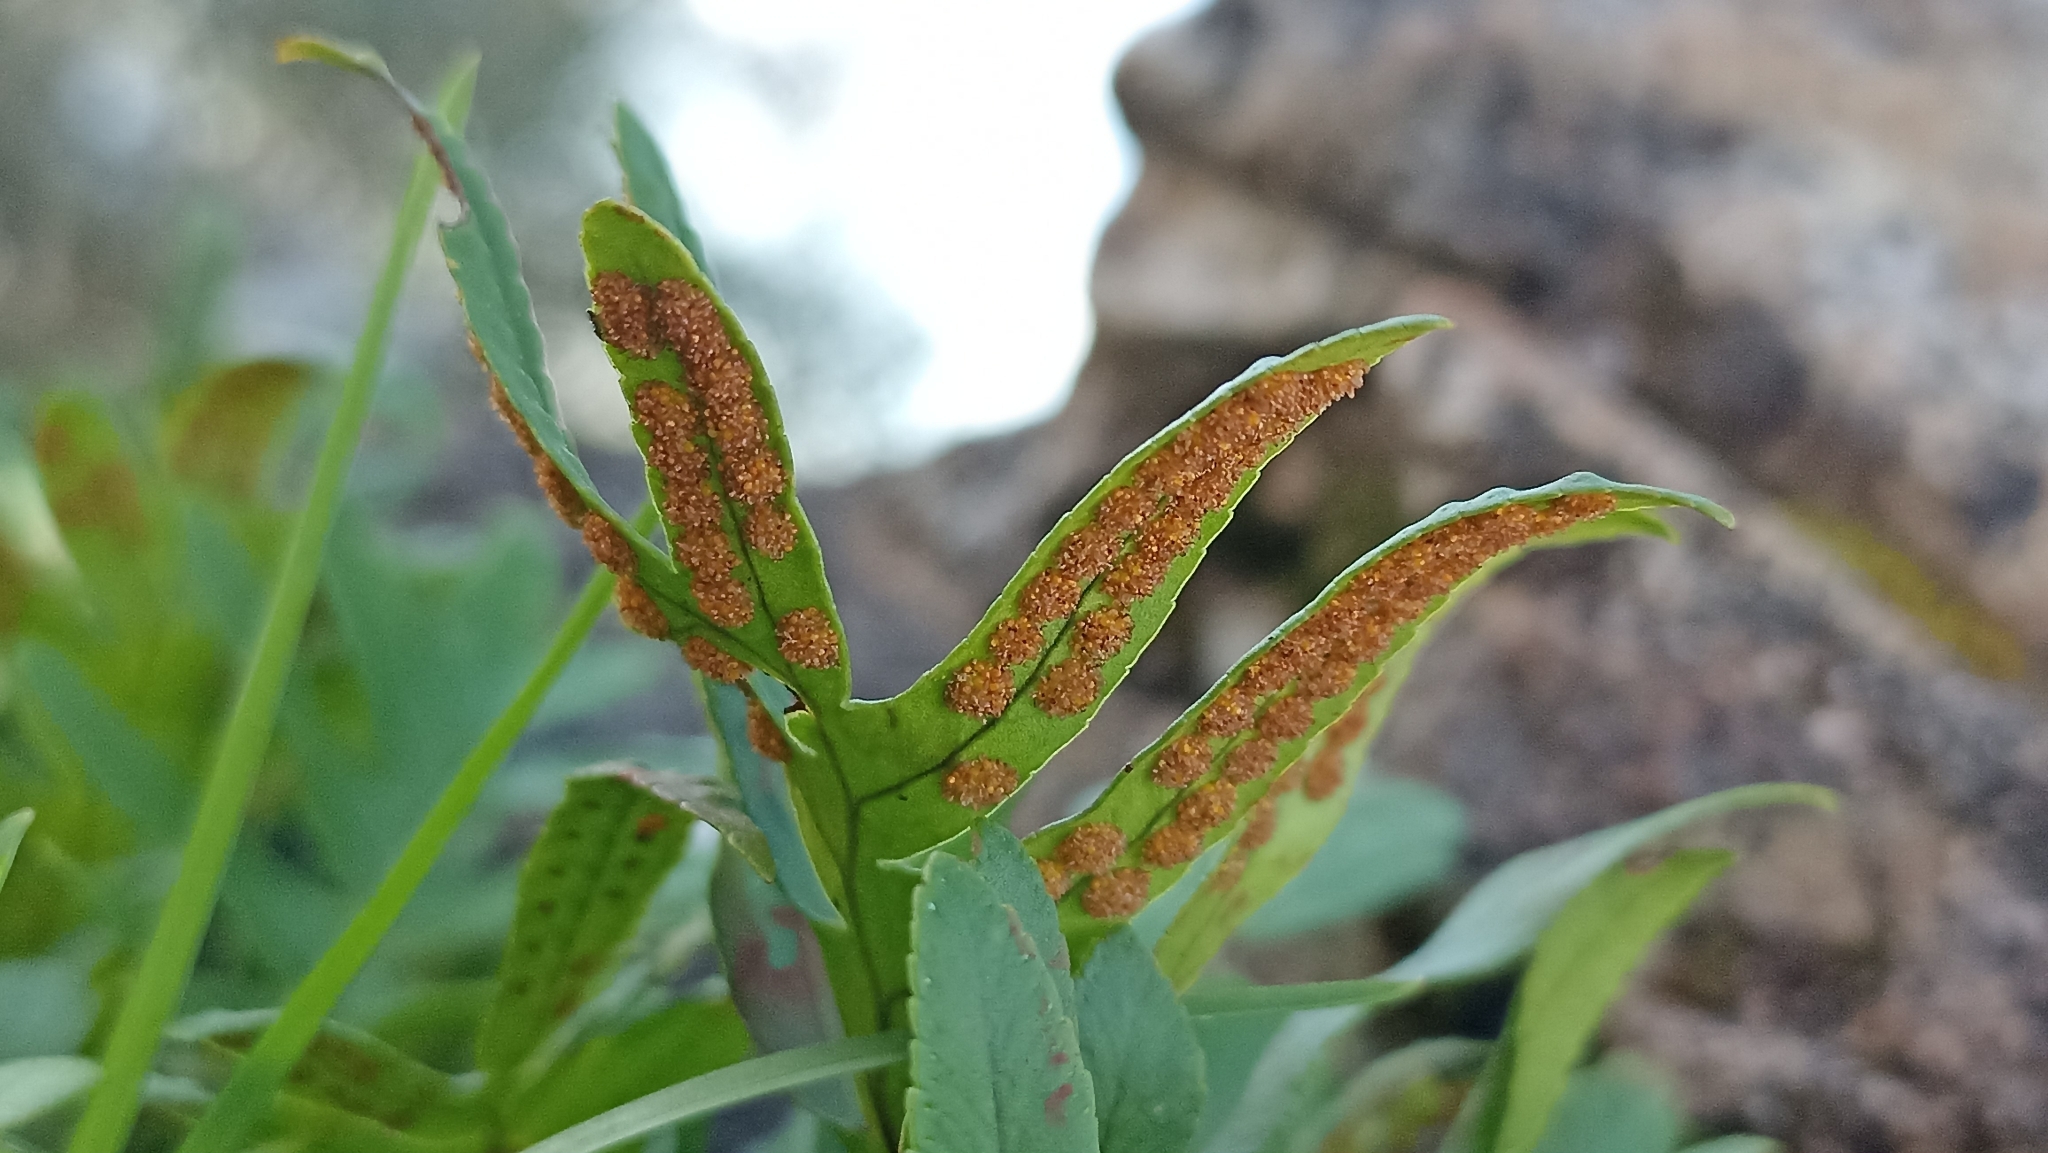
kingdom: Plantae
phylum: Tracheophyta
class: Polypodiopsida
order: Polypodiales
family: Polypodiaceae
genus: Polypodium
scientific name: Polypodium vulgare
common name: Common polypody
